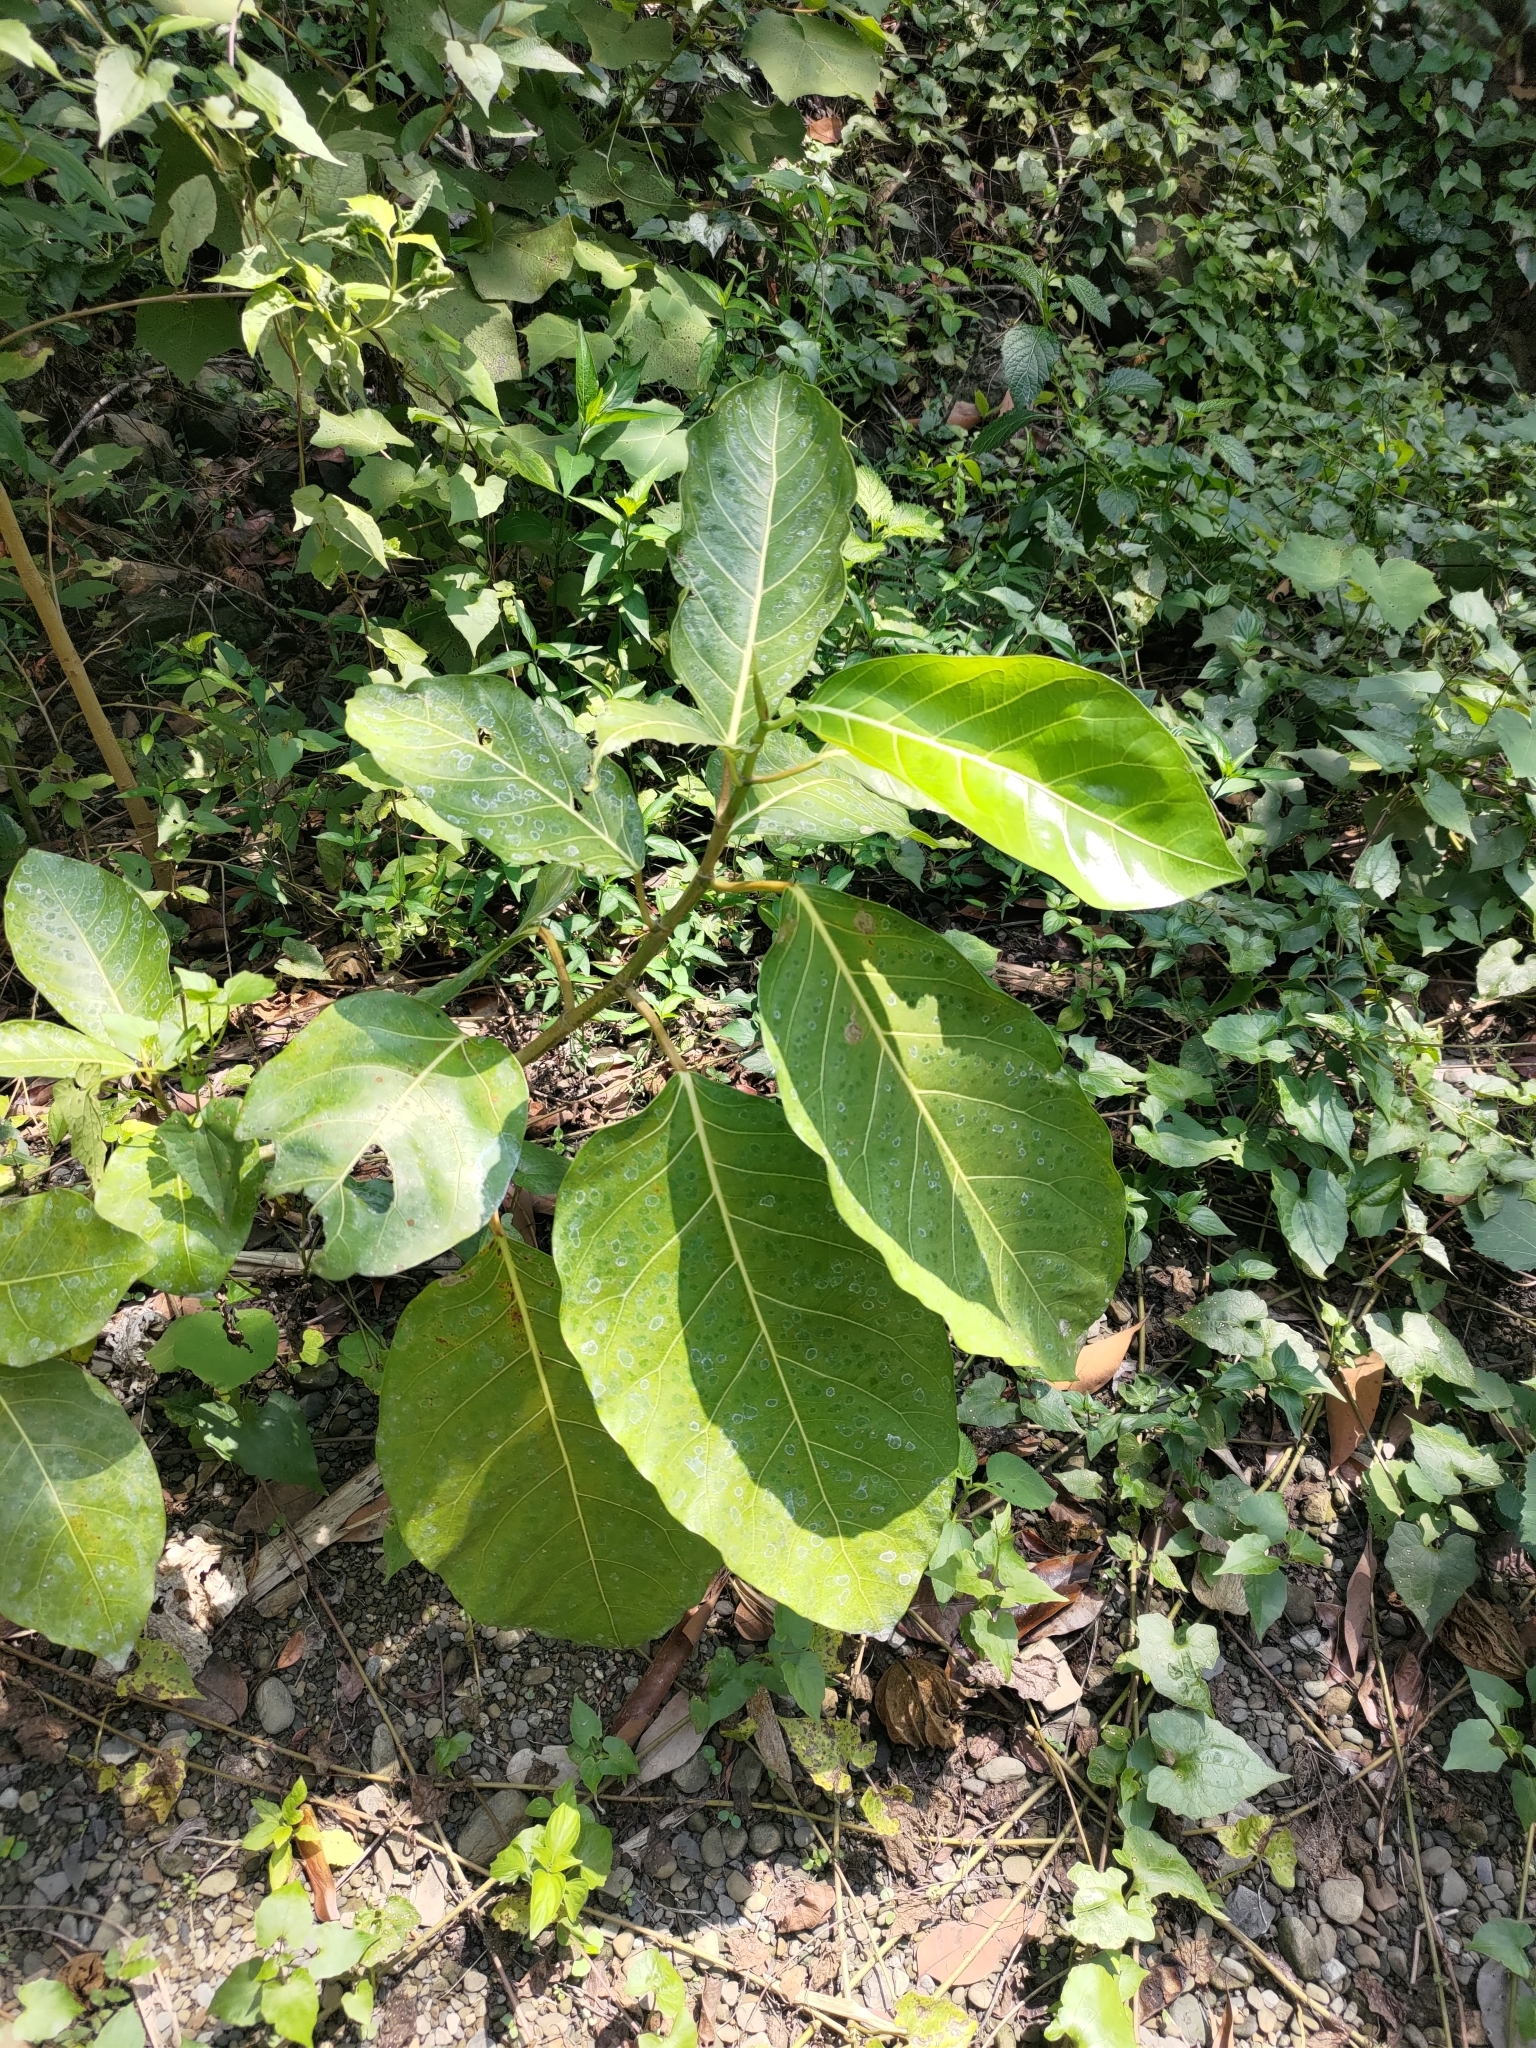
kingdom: Plantae
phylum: Tracheophyta
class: Magnoliopsida
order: Rosales
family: Moraceae
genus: Ficus
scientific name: Ficus septica
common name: Septic fig
